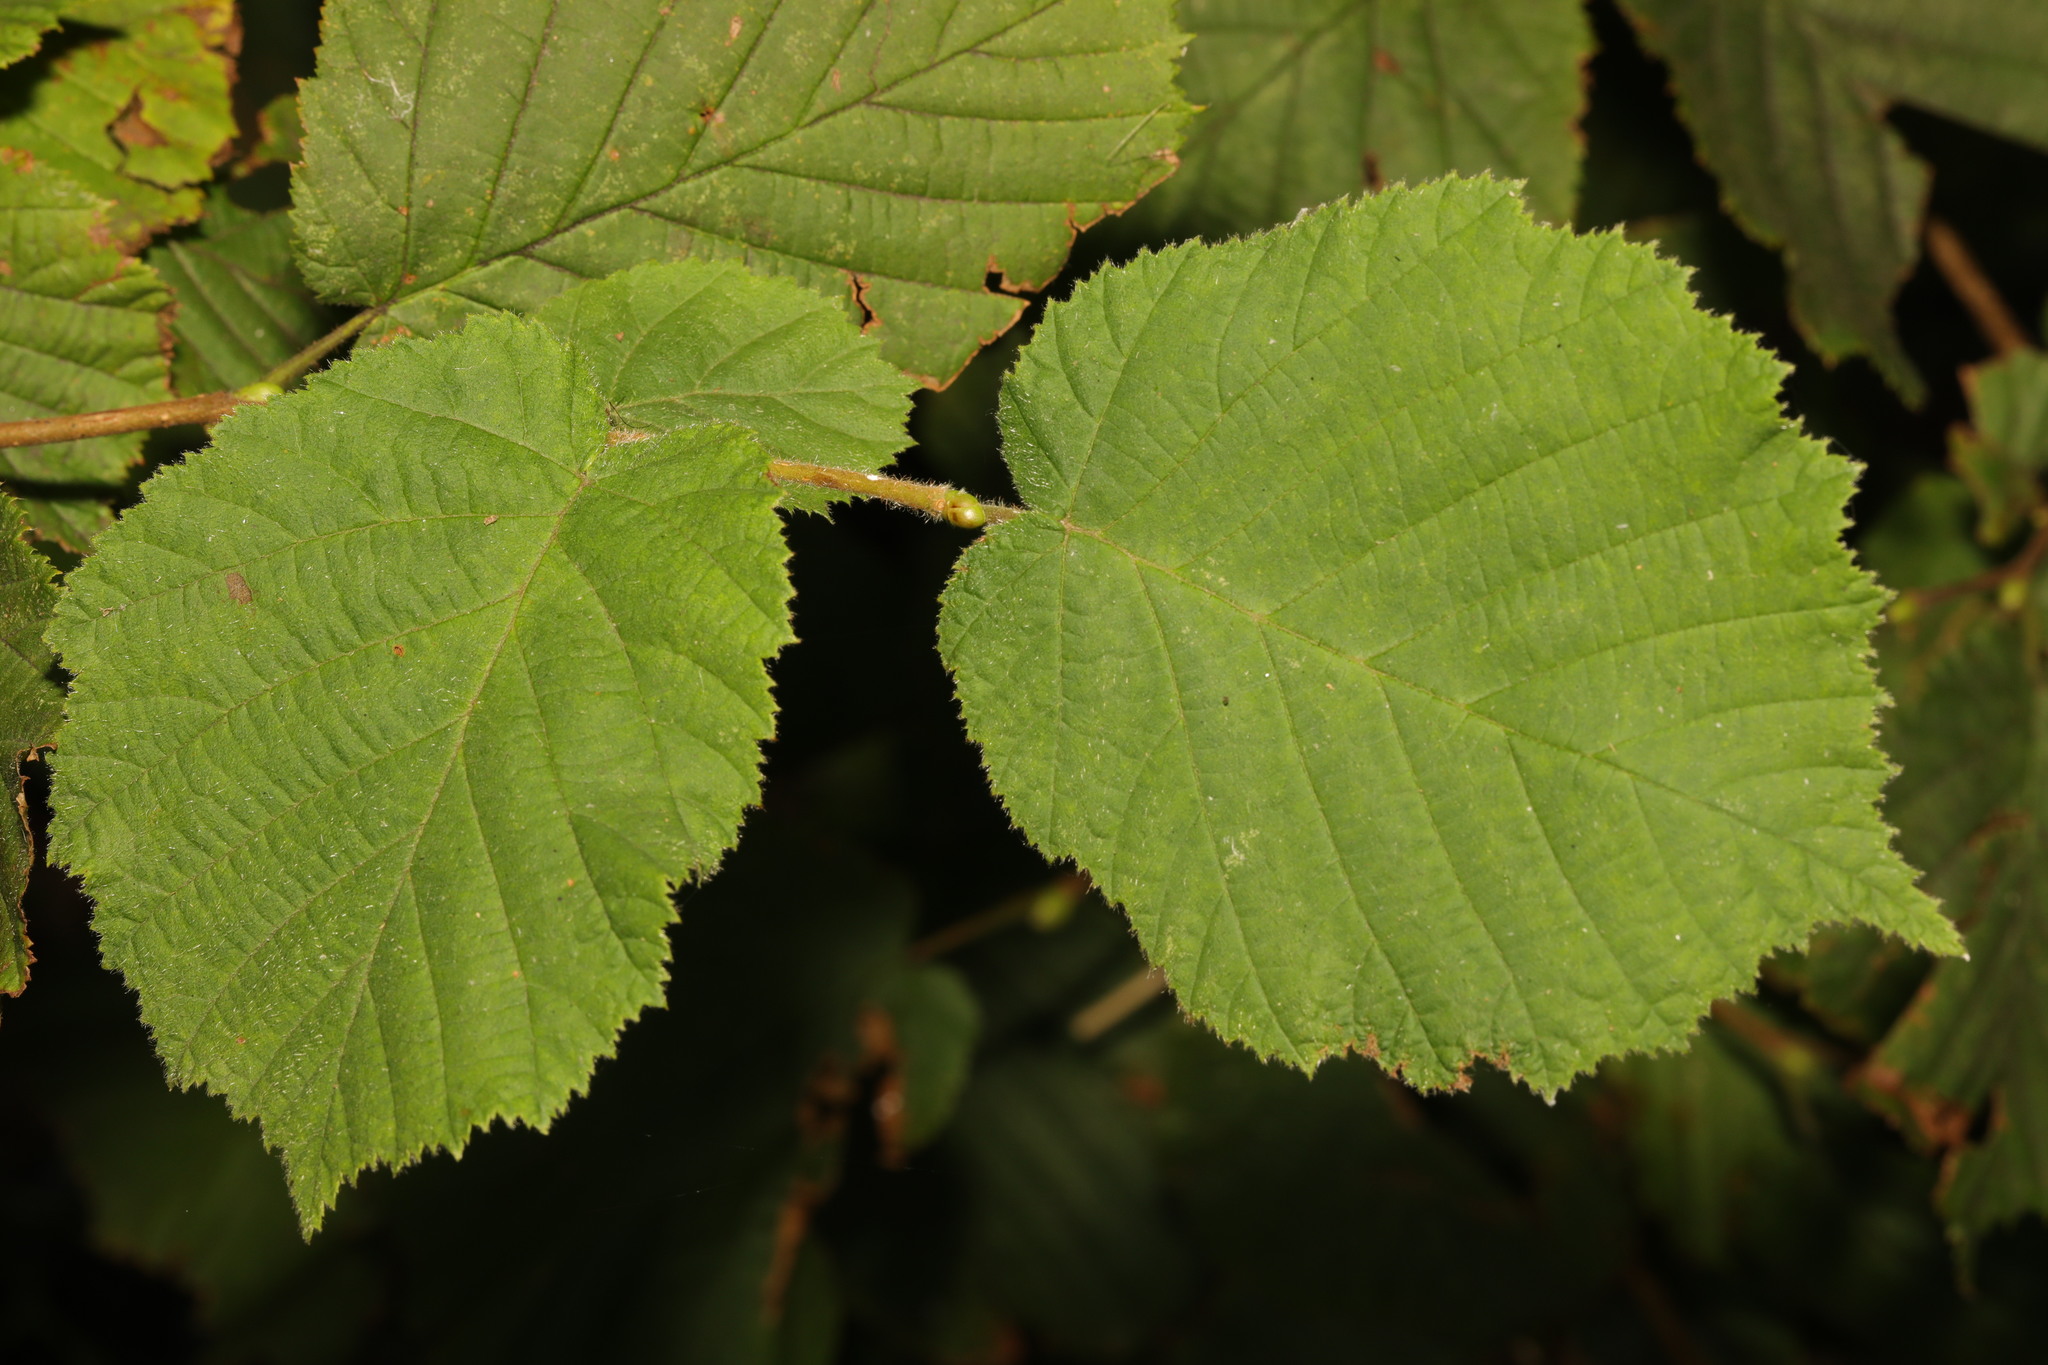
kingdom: Plantae
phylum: Tracheophyta
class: Magnoliopsida
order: Fagales
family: Betulaceae
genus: Corylus
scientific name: Corylus avellana
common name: European hazel
